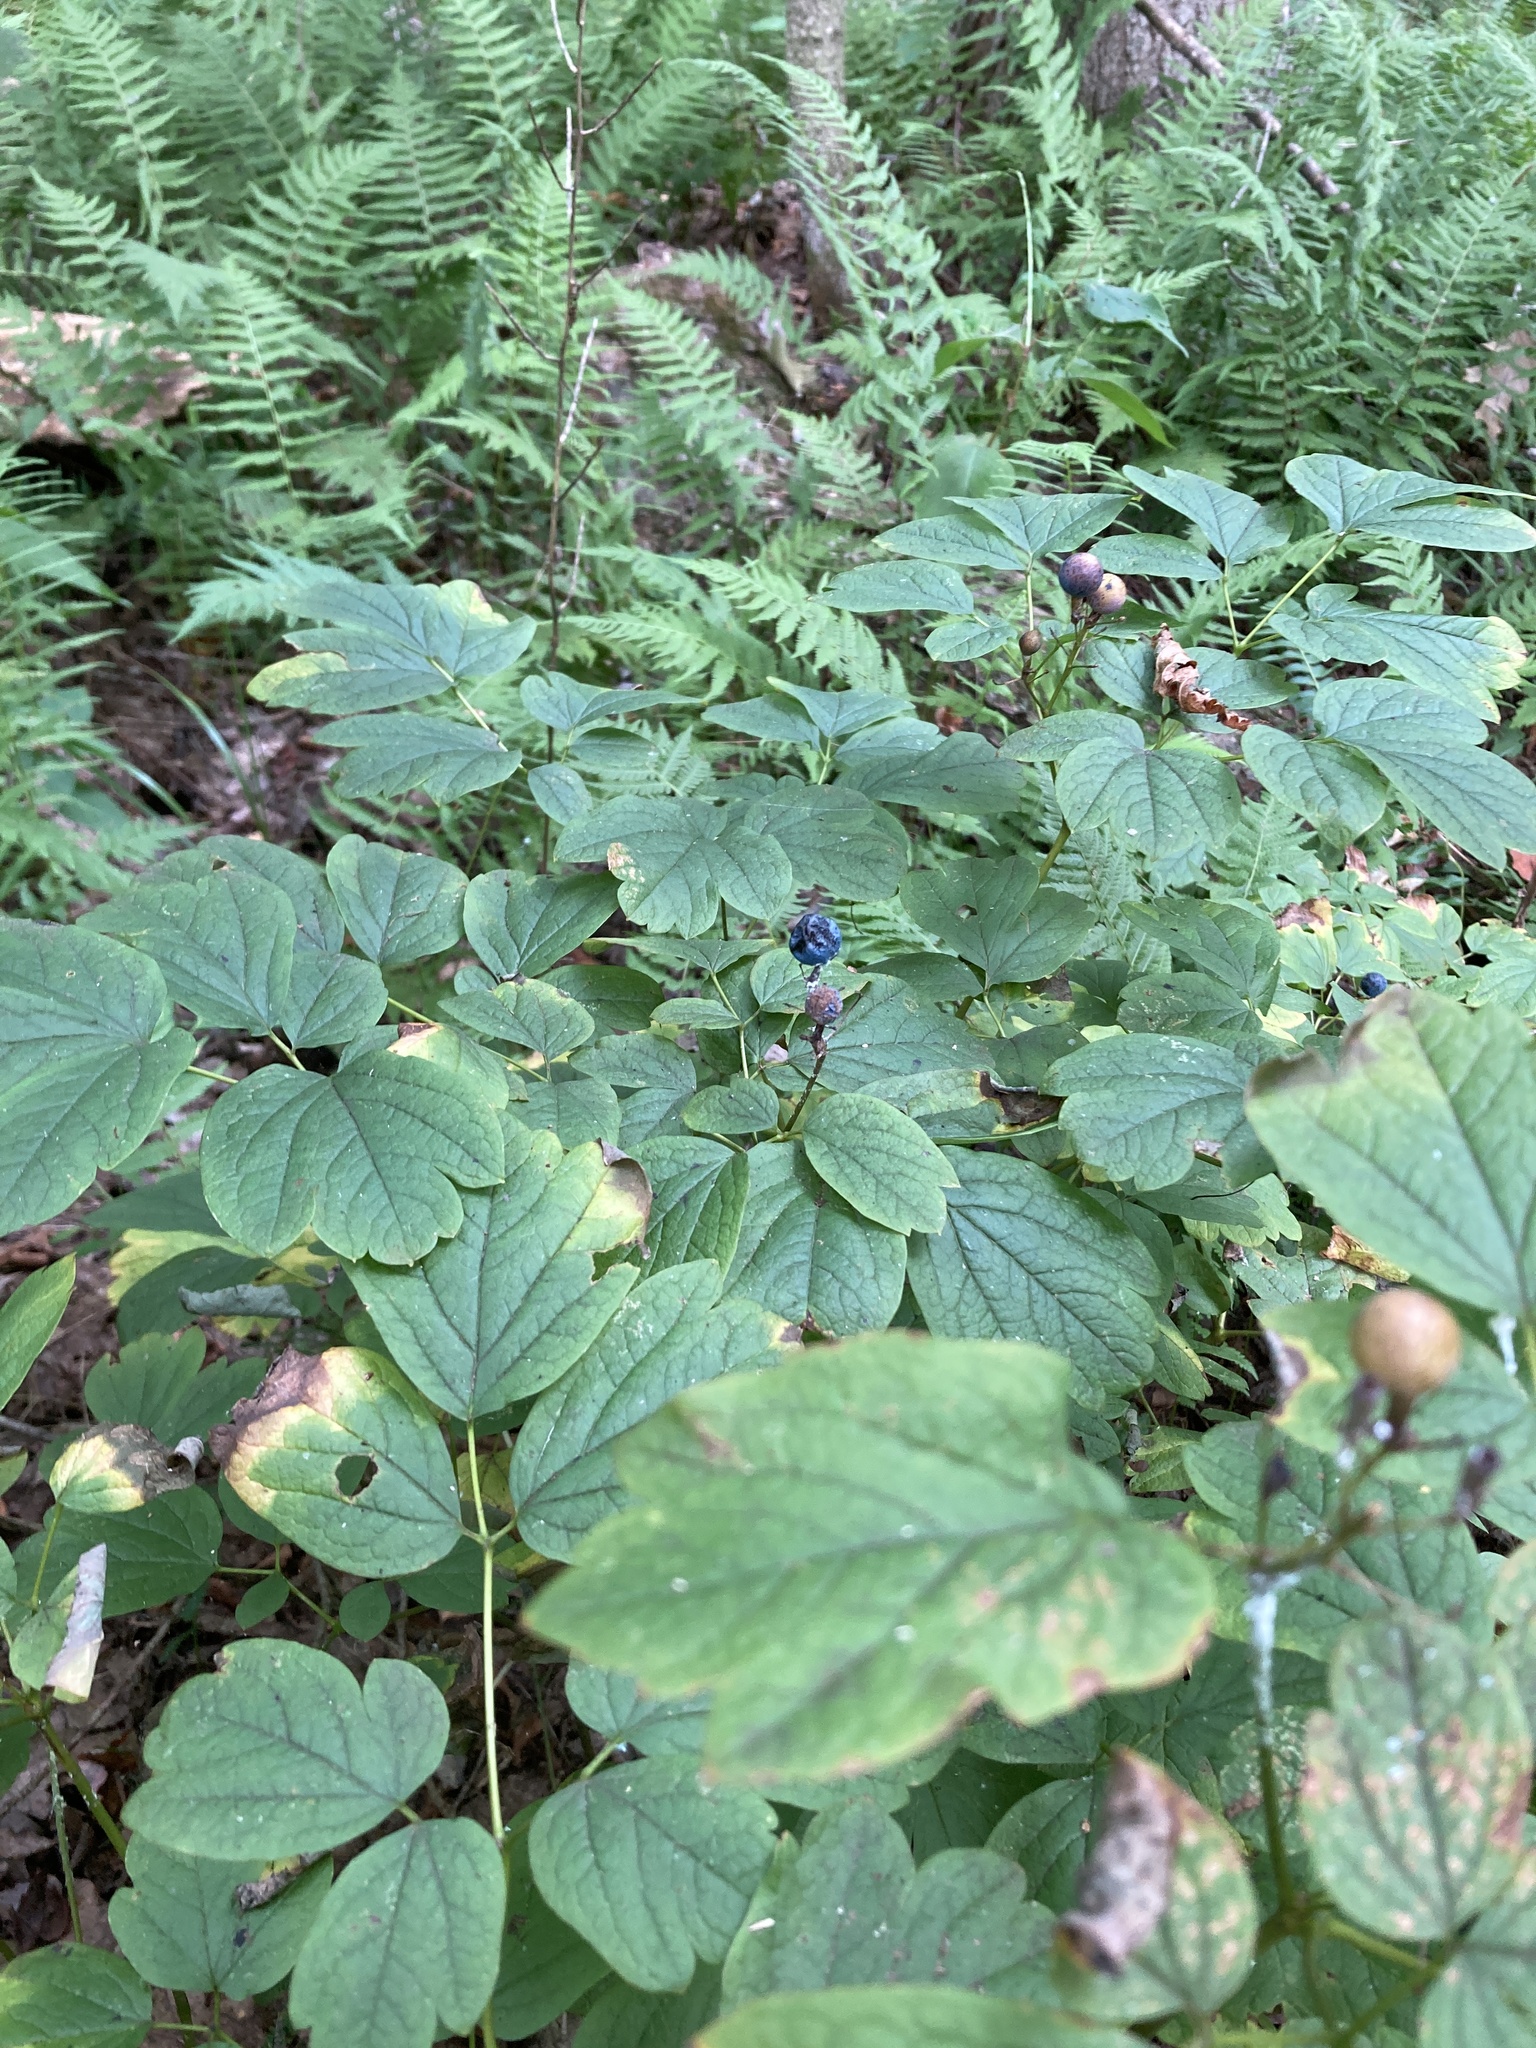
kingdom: Plantae
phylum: Tracheophyta
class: Magnoliopsida
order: Ranunculales
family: Berberidaceae
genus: Caulophyllum
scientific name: Caulophyllum thalictroides
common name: Blue cohosh
